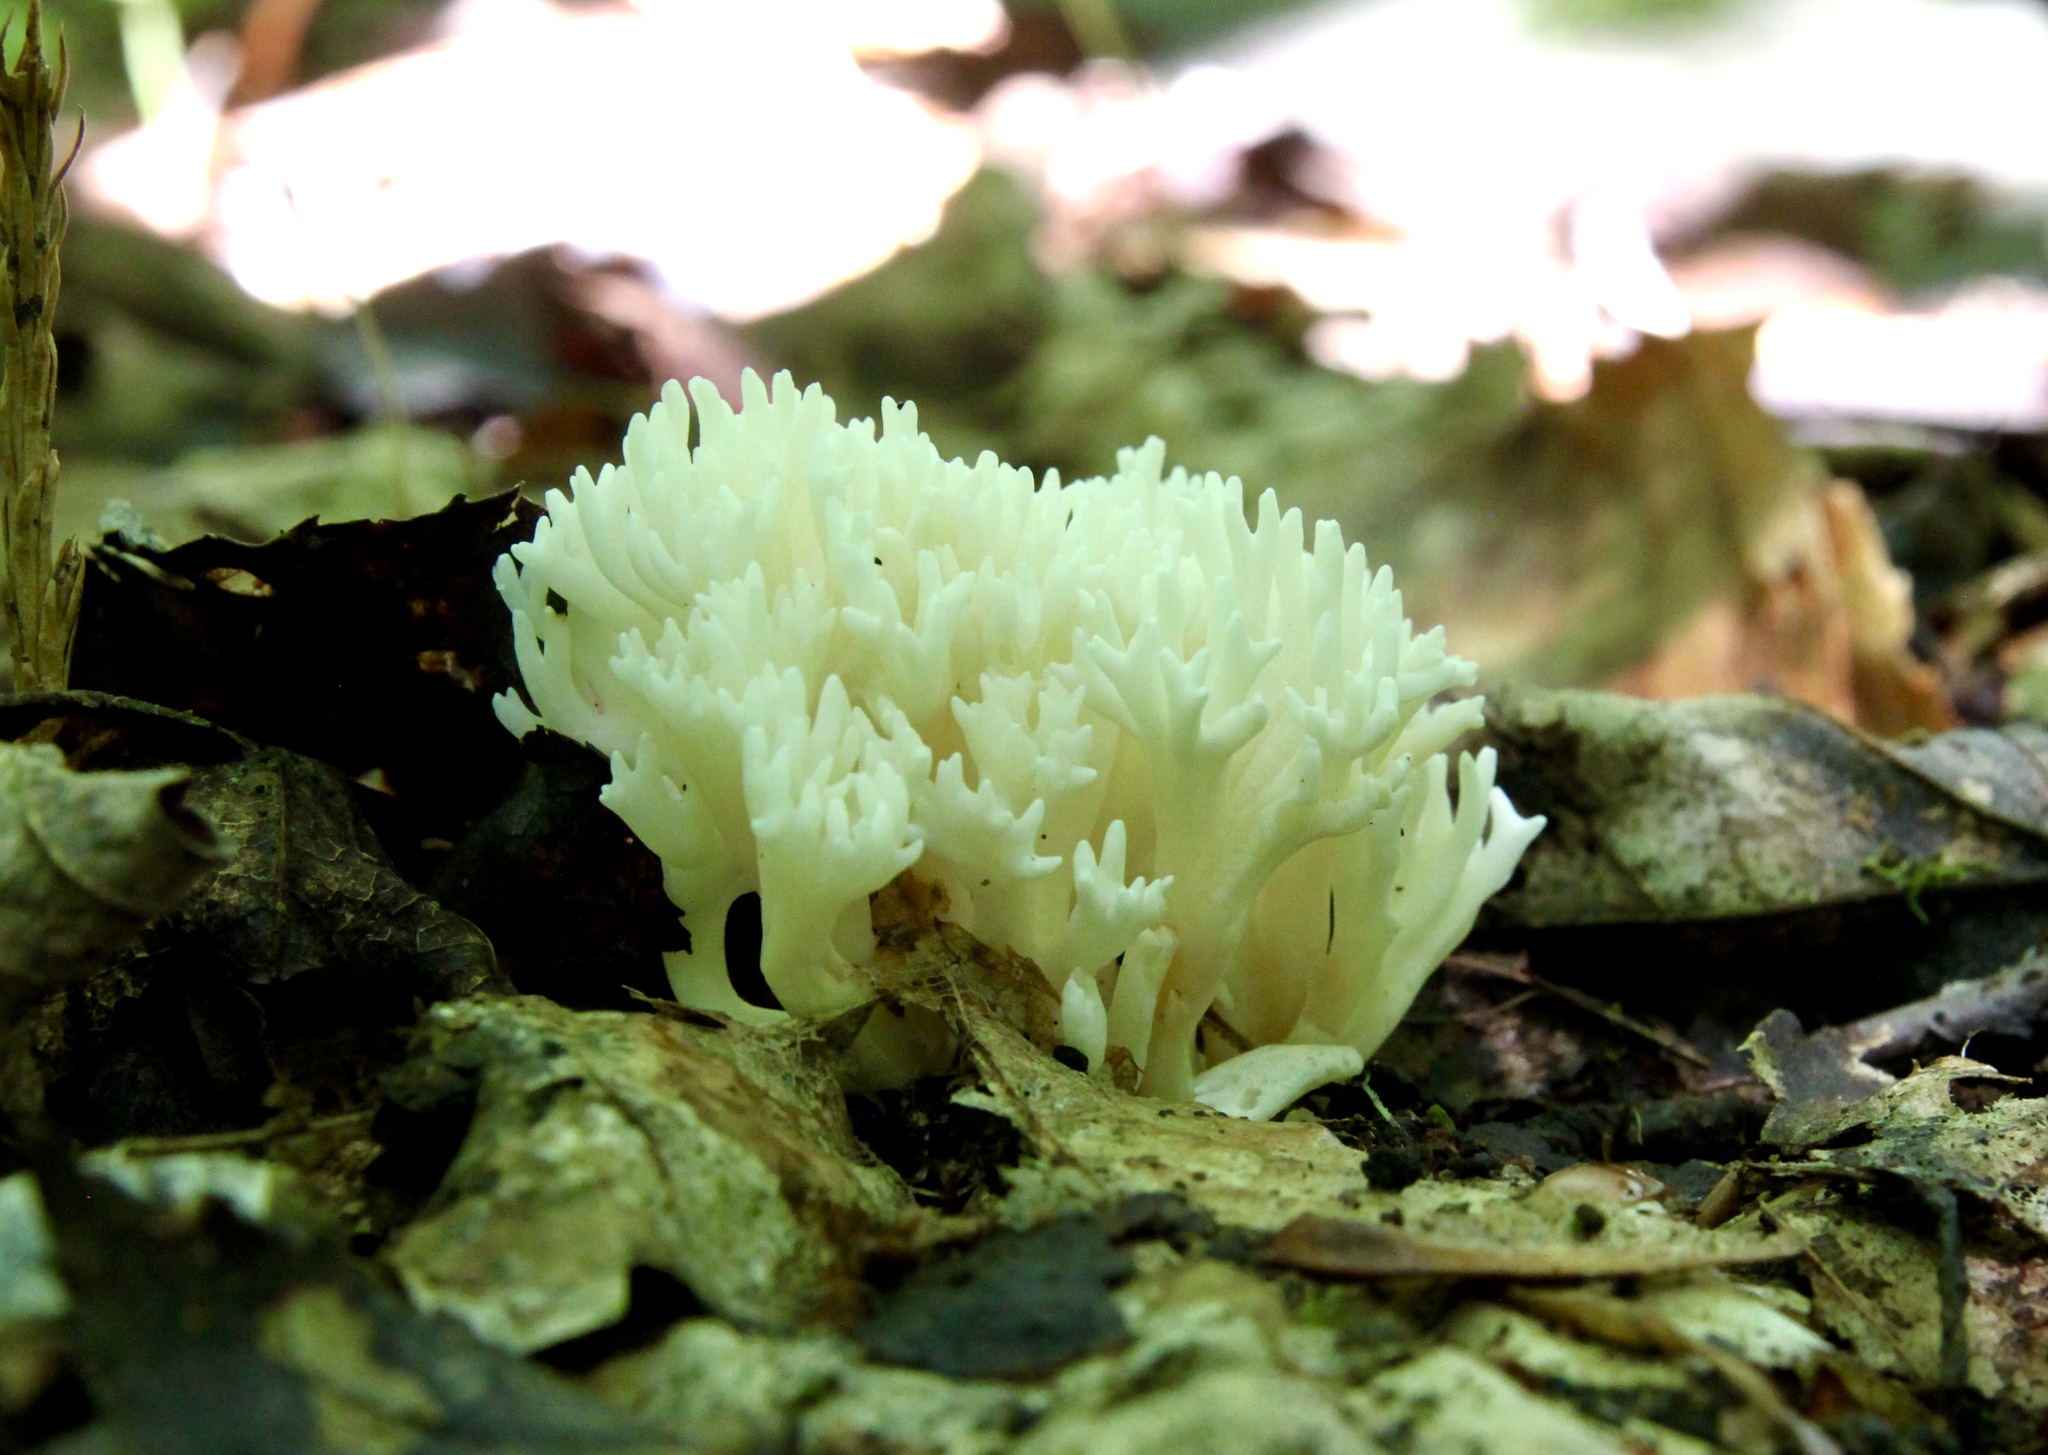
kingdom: Fungi
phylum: Basidiomycota
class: Agaricomycetes
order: Agaricales
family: Clavariaceae
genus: Ramariopsis
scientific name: Ramariopsis kunzei
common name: Ivory coral
